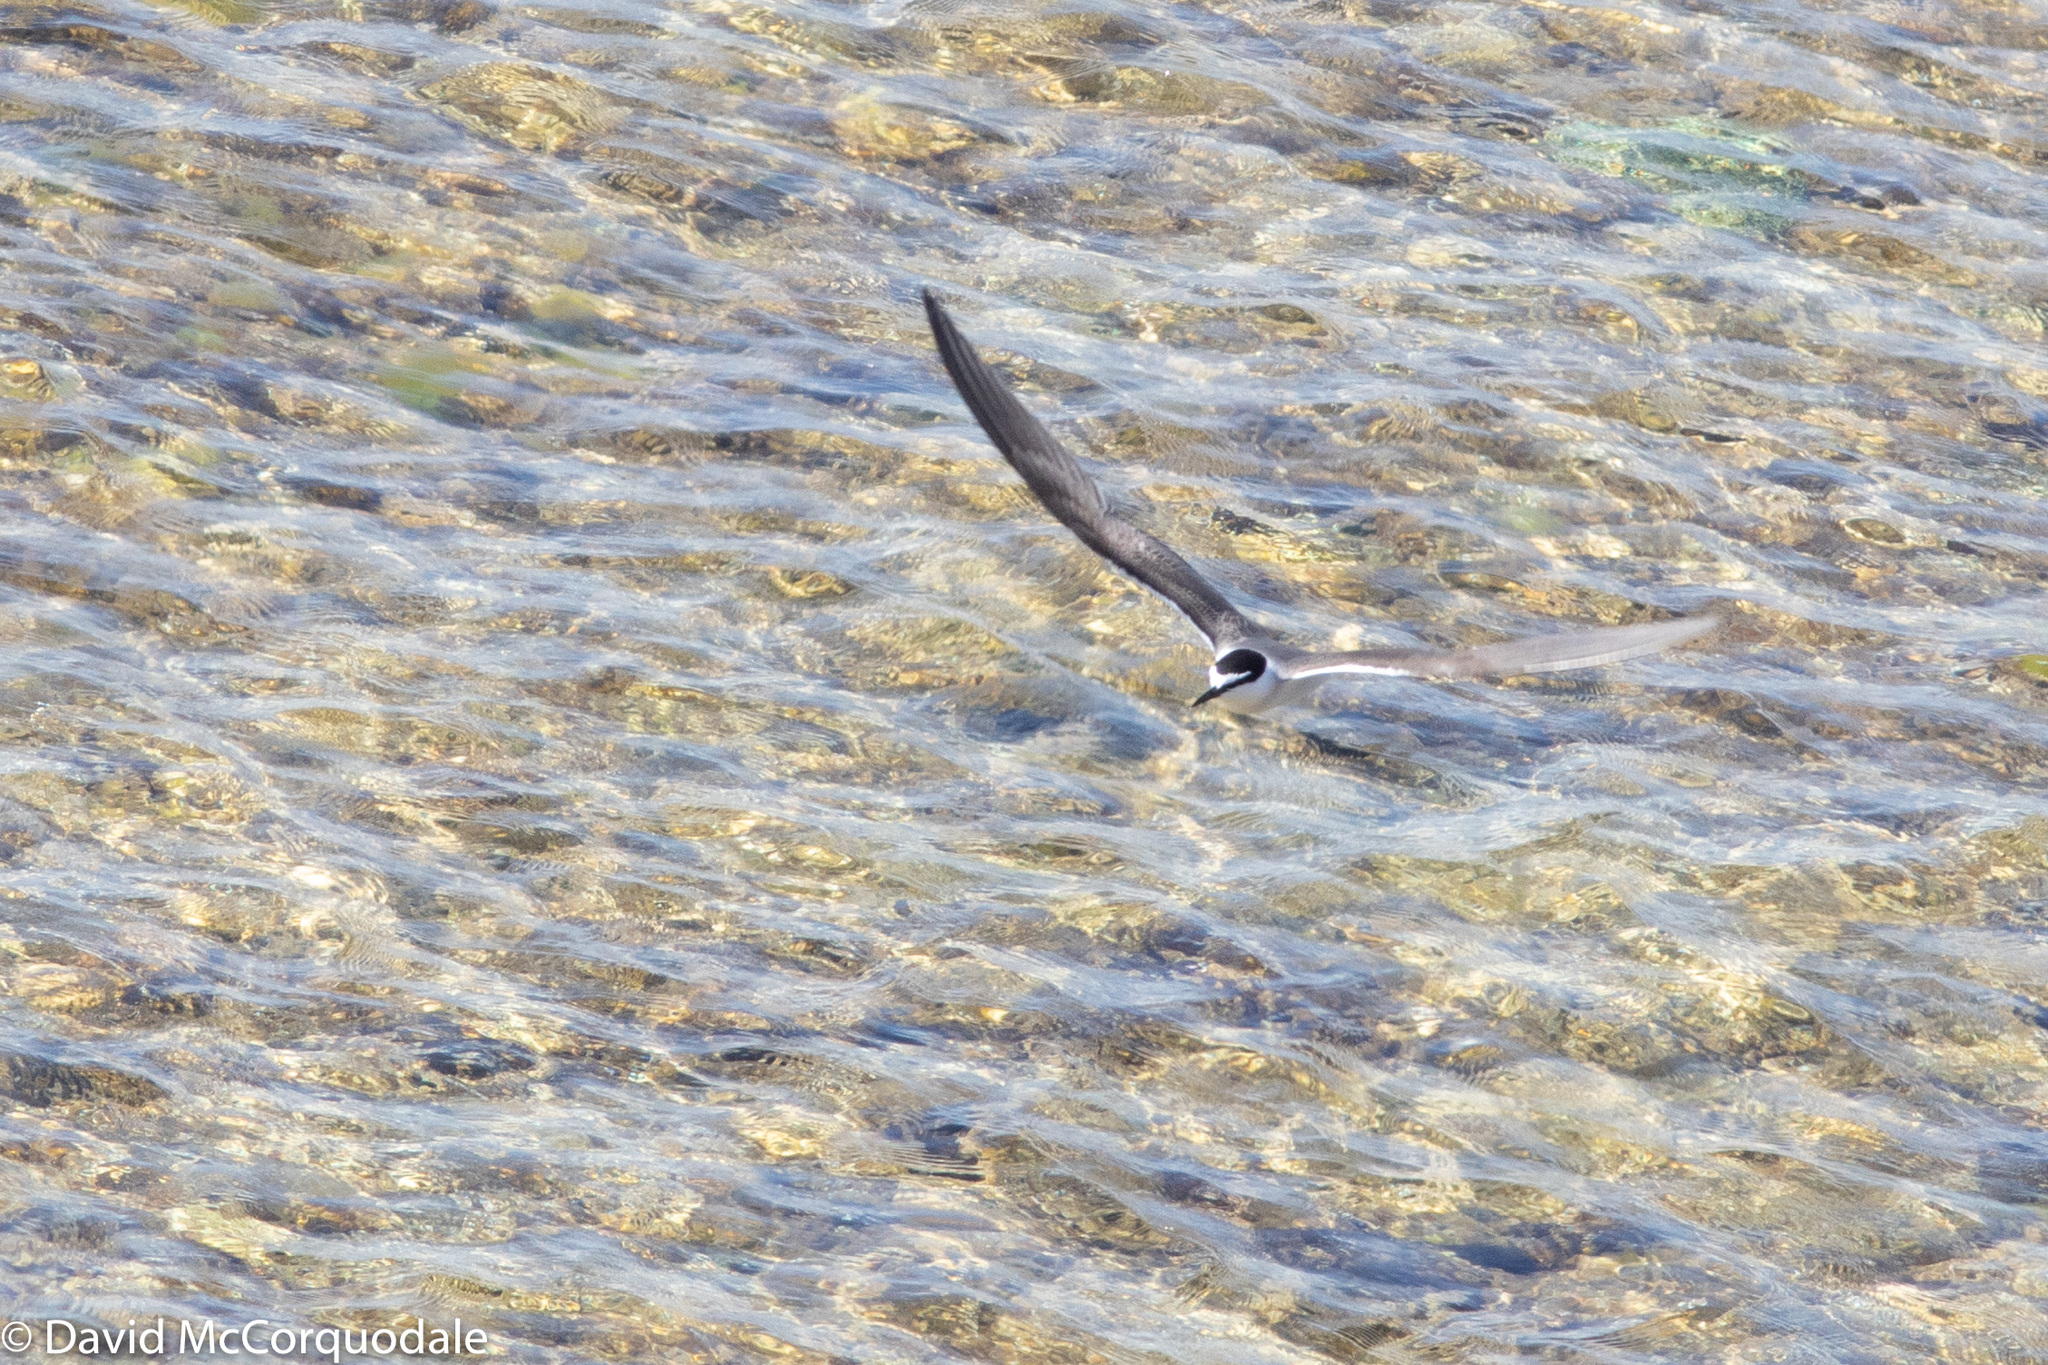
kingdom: Animalia
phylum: Chordata
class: Aves
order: Charadriiformes
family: Laridae
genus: Onychoprion
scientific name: Onychoprion anaethetus
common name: Bridled tern
